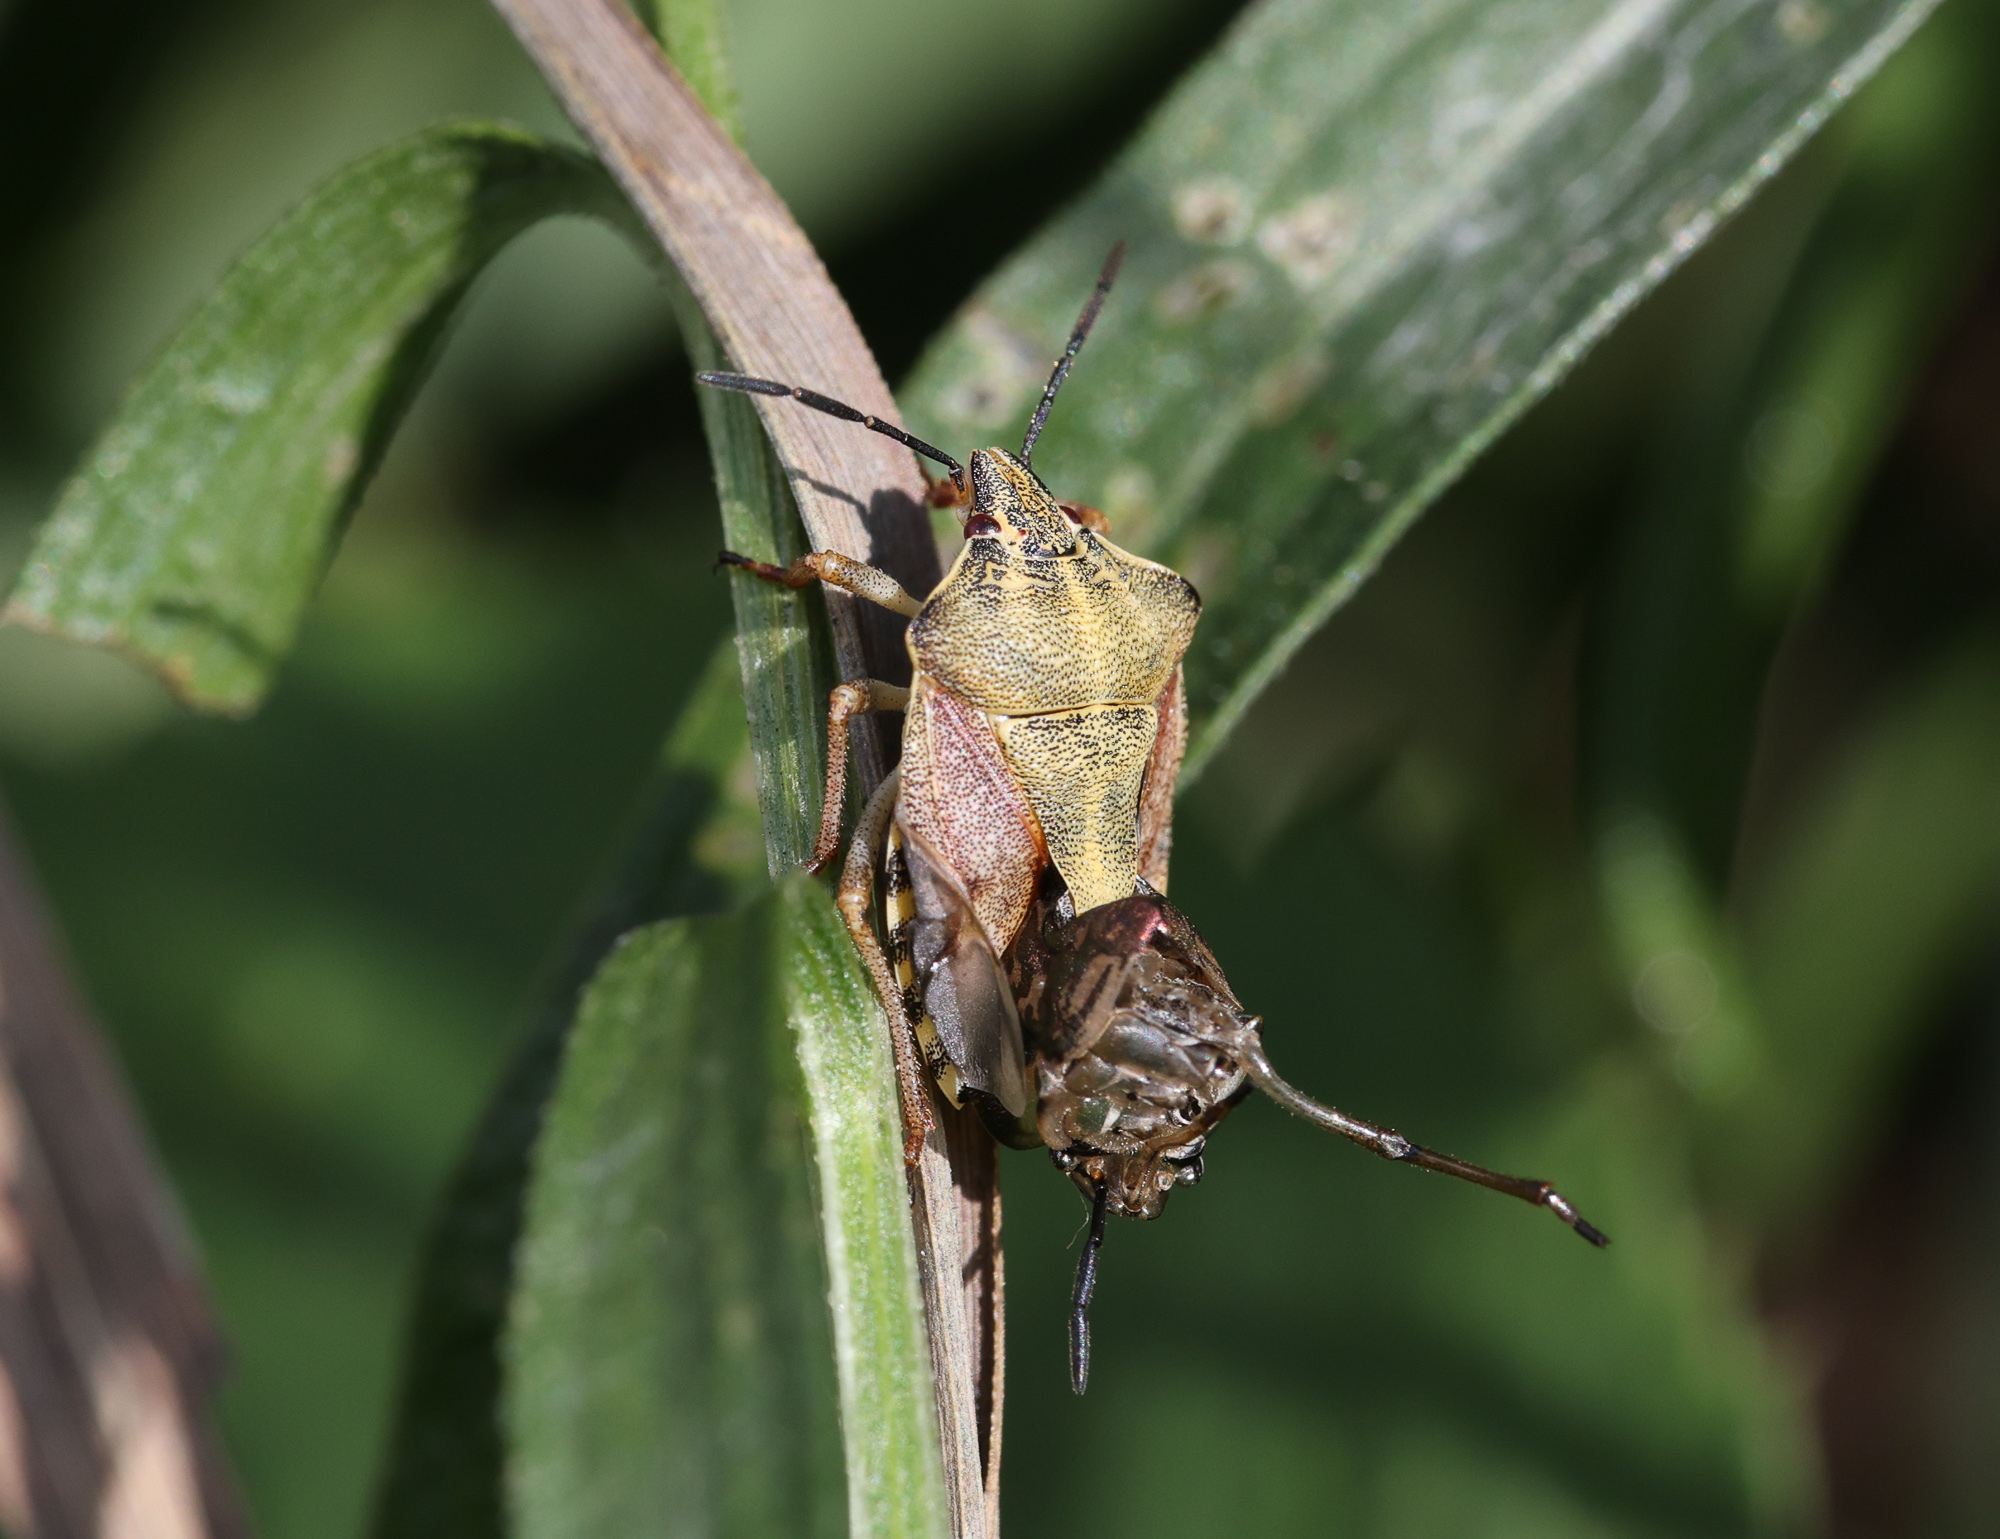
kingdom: Animalia
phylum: Arthropoda
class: Insecta
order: Hemiptera
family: Pentatomidae
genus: Carpocoris
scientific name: Carpocoris purpureipennis
